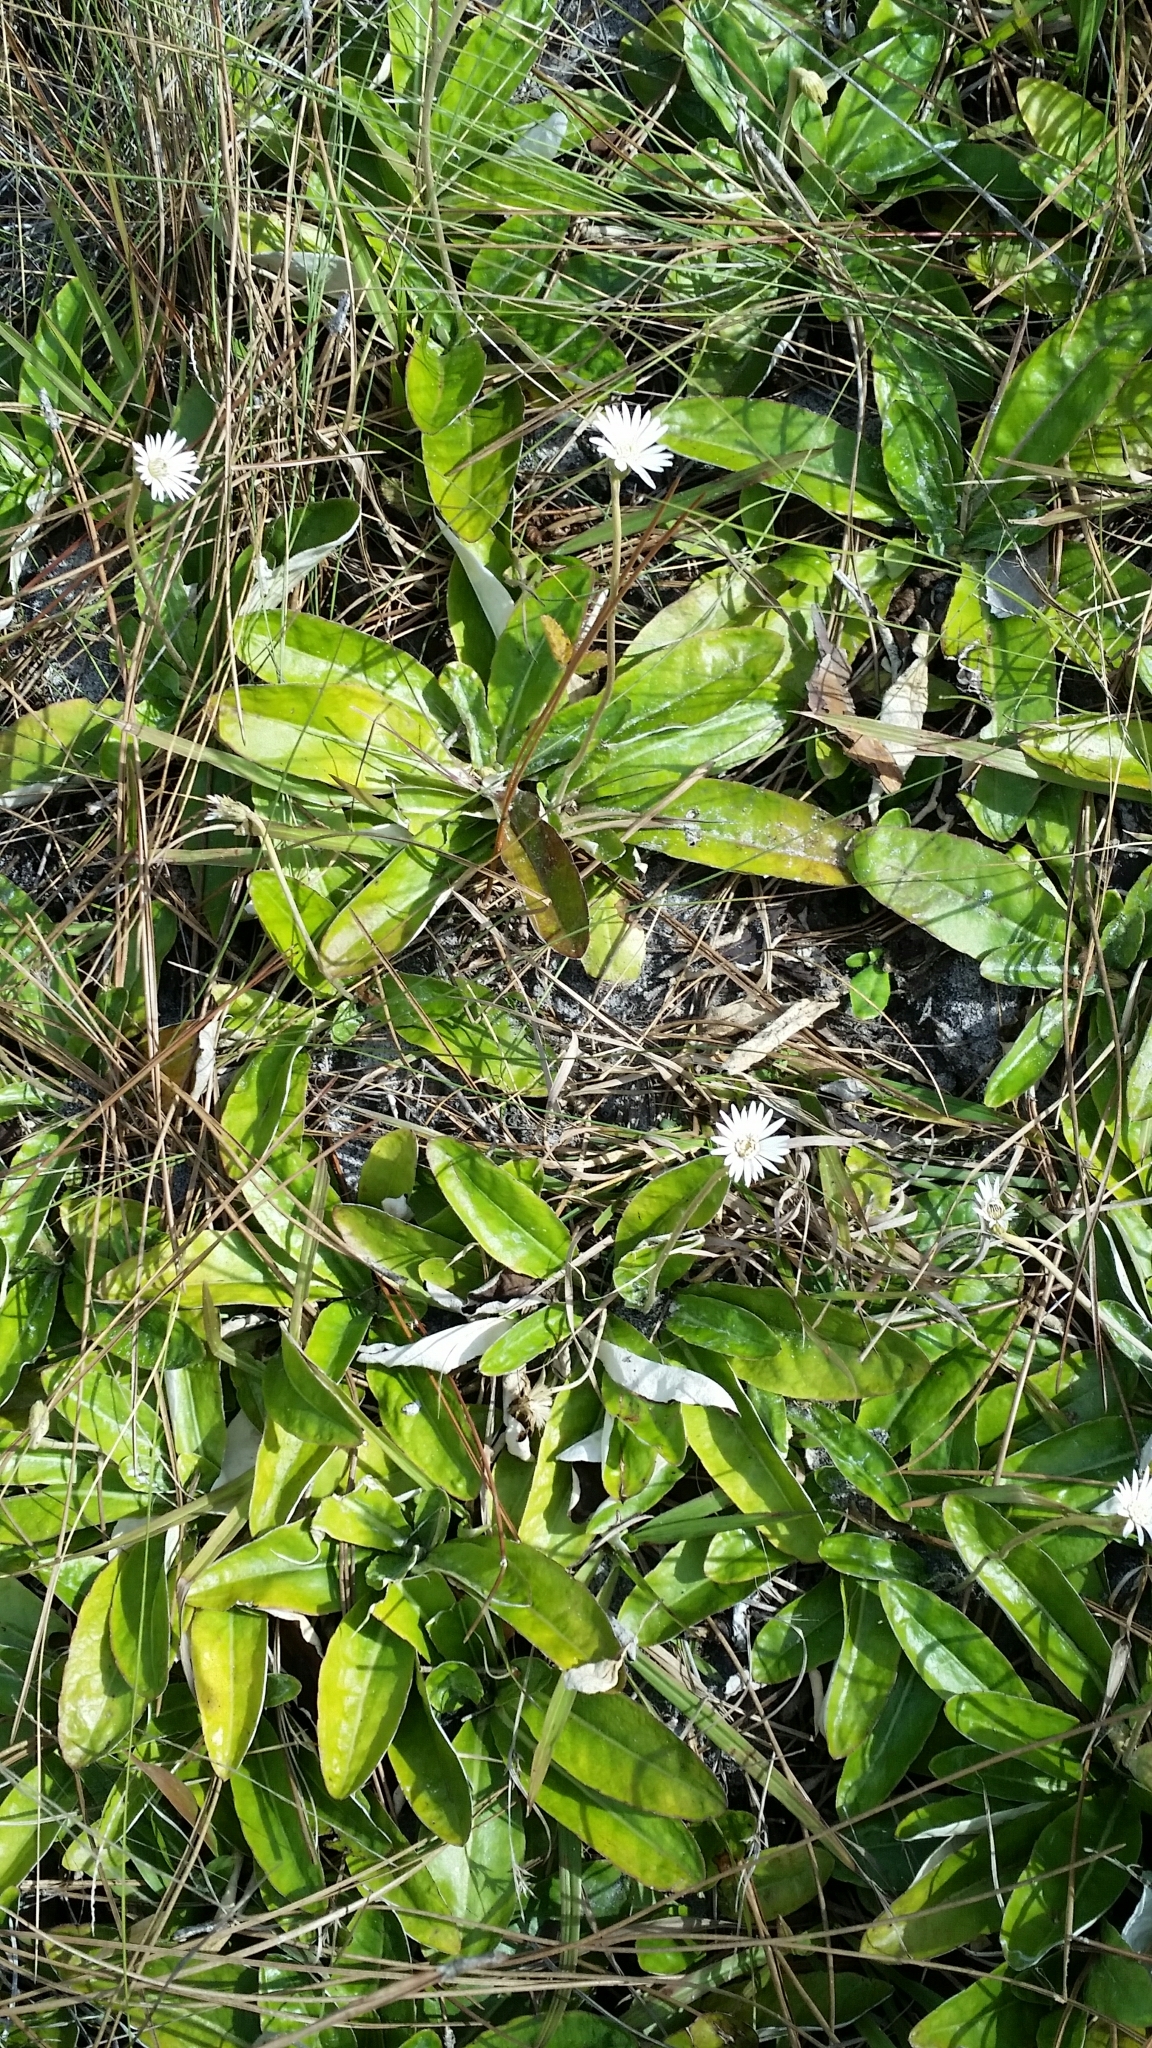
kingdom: Plantae
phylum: Tracheophyta
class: Magnoliopsida
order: Asterales
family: Asteraceae
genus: Chaptalia
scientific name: Chaptalia tomentosa
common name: Woolly sunbonnet
